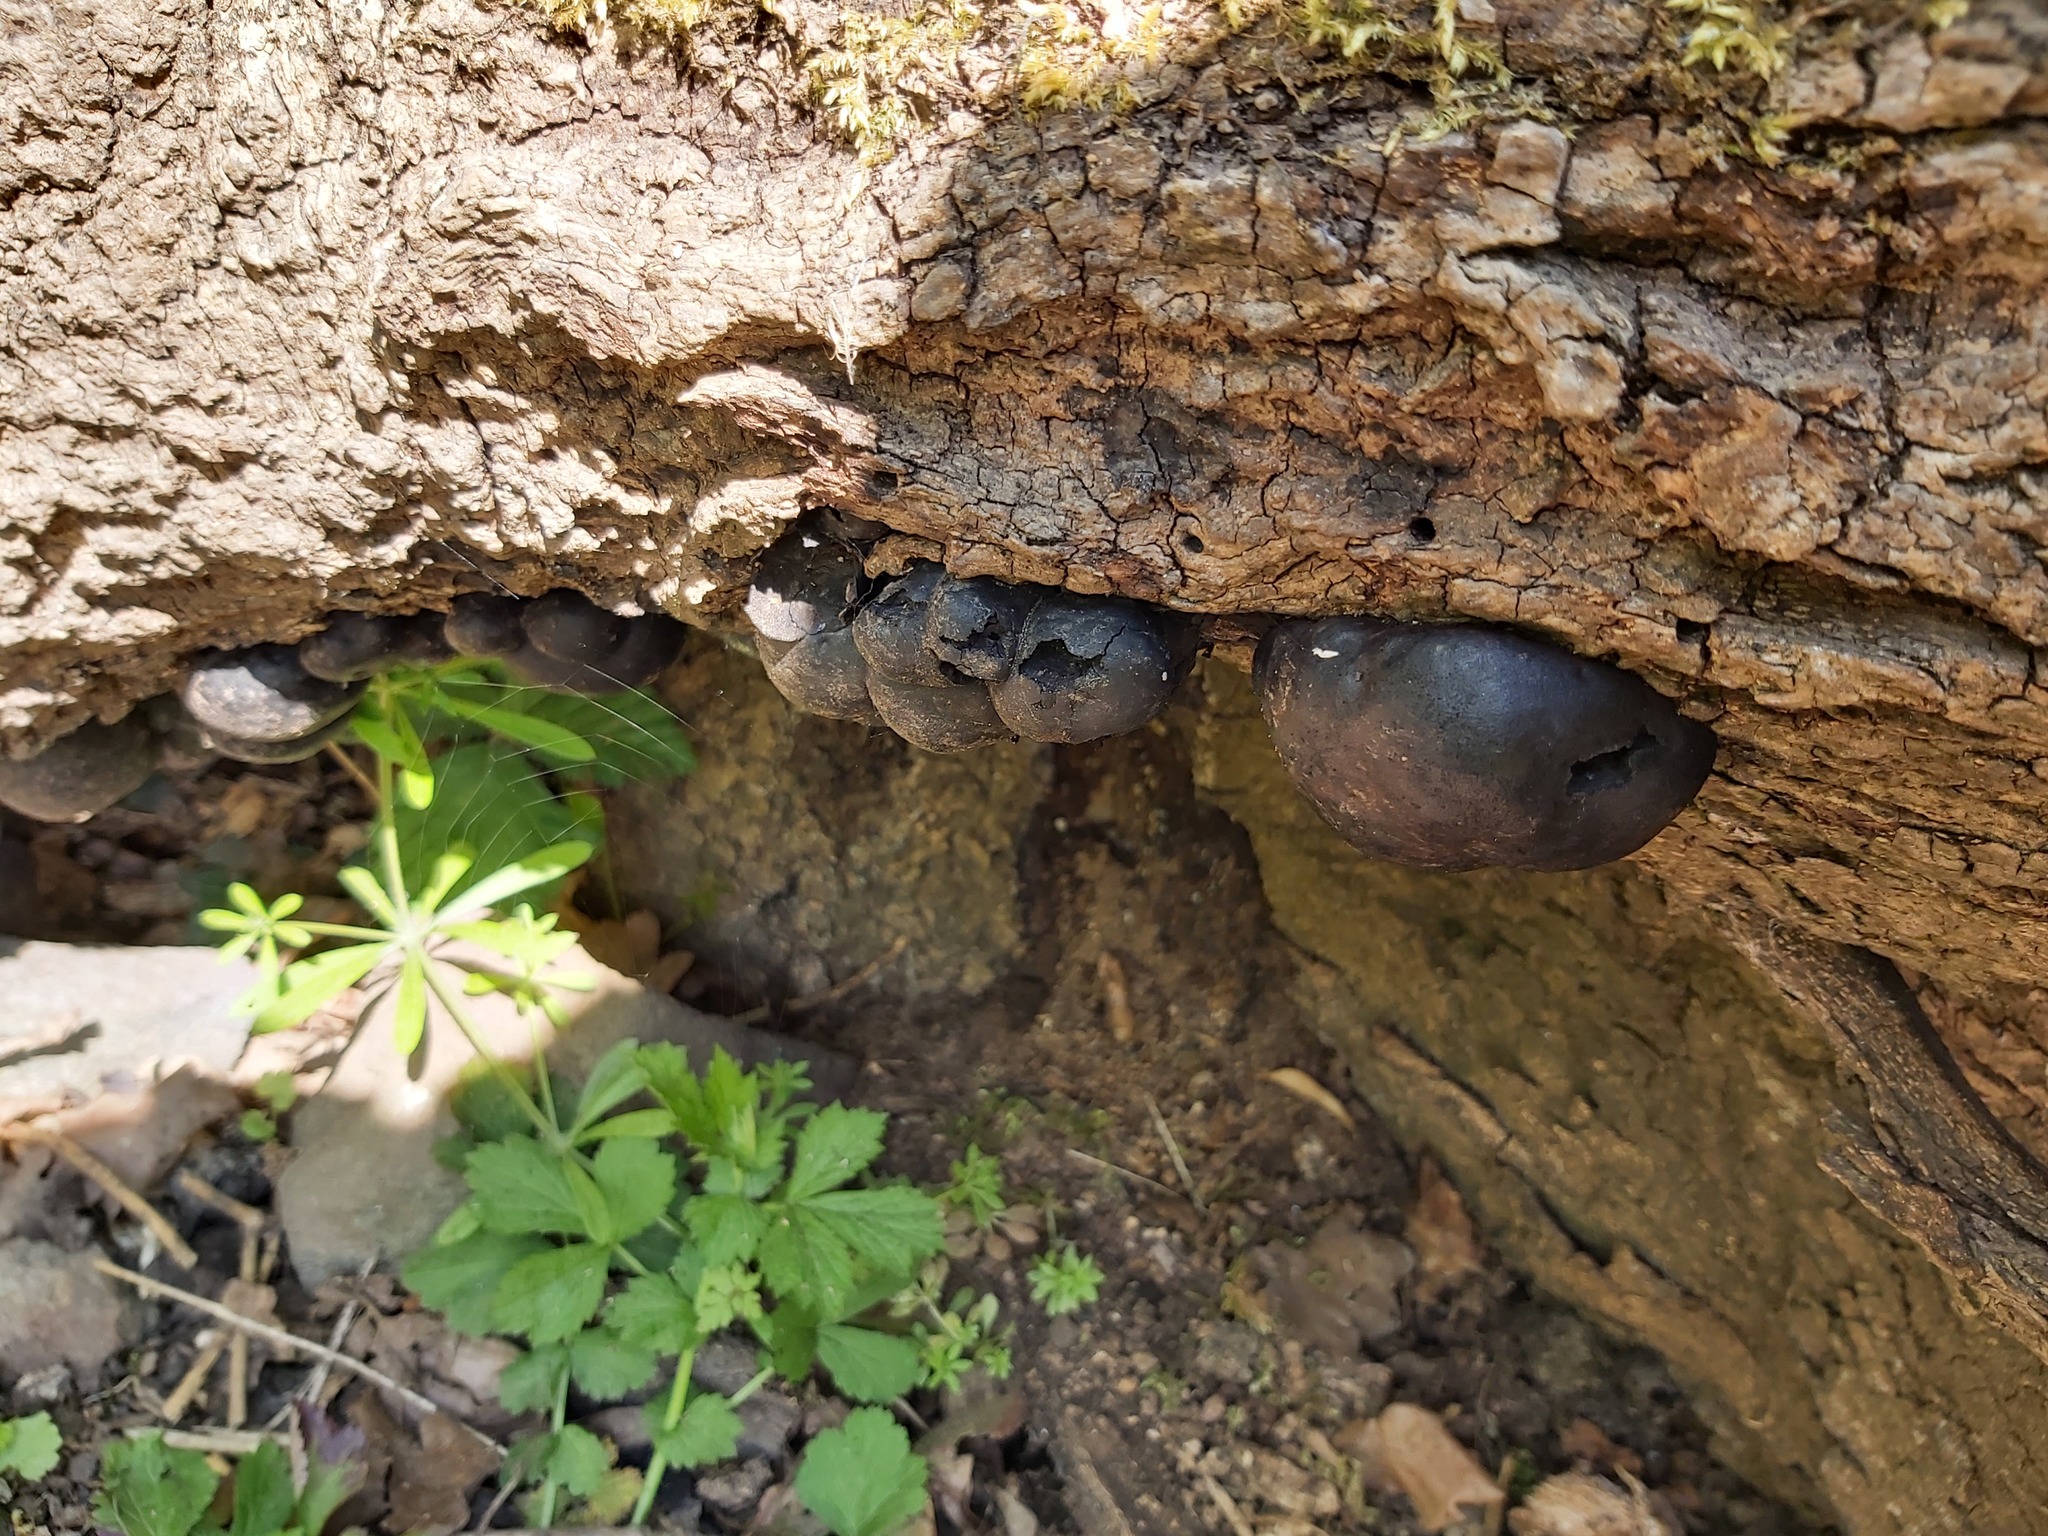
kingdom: Fungi
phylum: Ascomycota
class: Sordariomycetes
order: Xylariales
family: Hypoxylaceae
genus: Daldinia
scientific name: Daldinia concentrica
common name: Cramp balls
